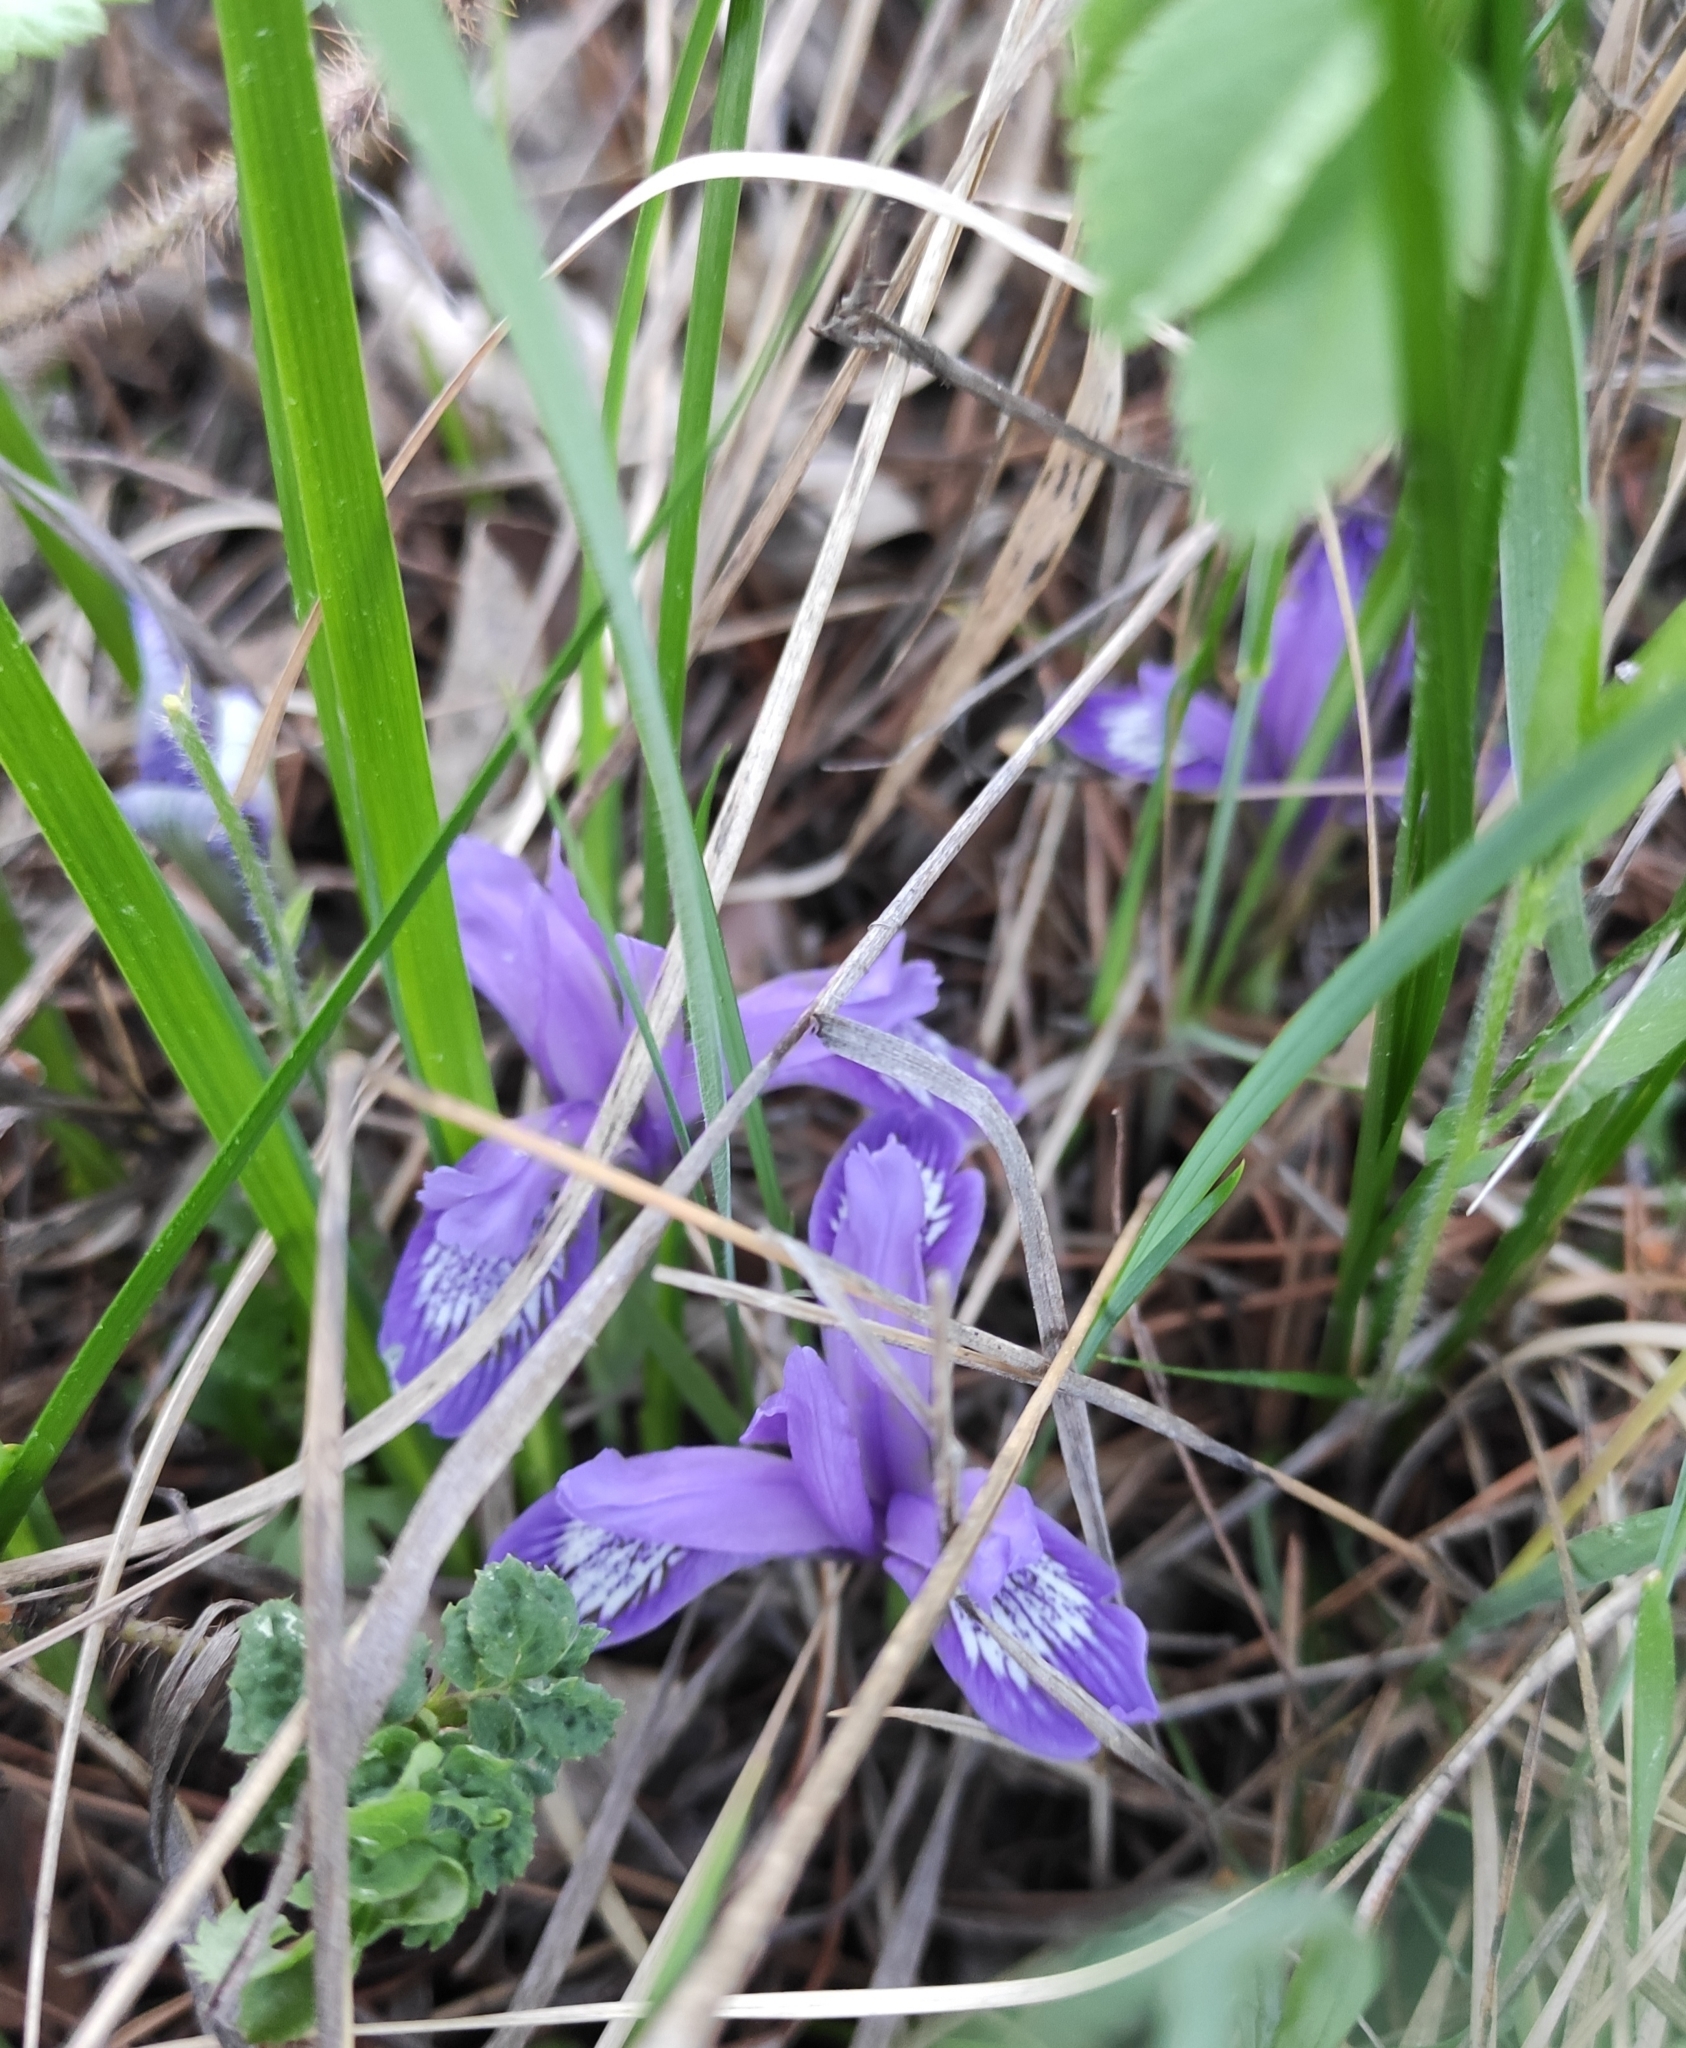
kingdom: Plantae
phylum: Tracheophyta
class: Liliopsida
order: Asparagales
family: Iridaceae
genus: Iris
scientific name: Iris ruthenica
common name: Purple-bract iris
